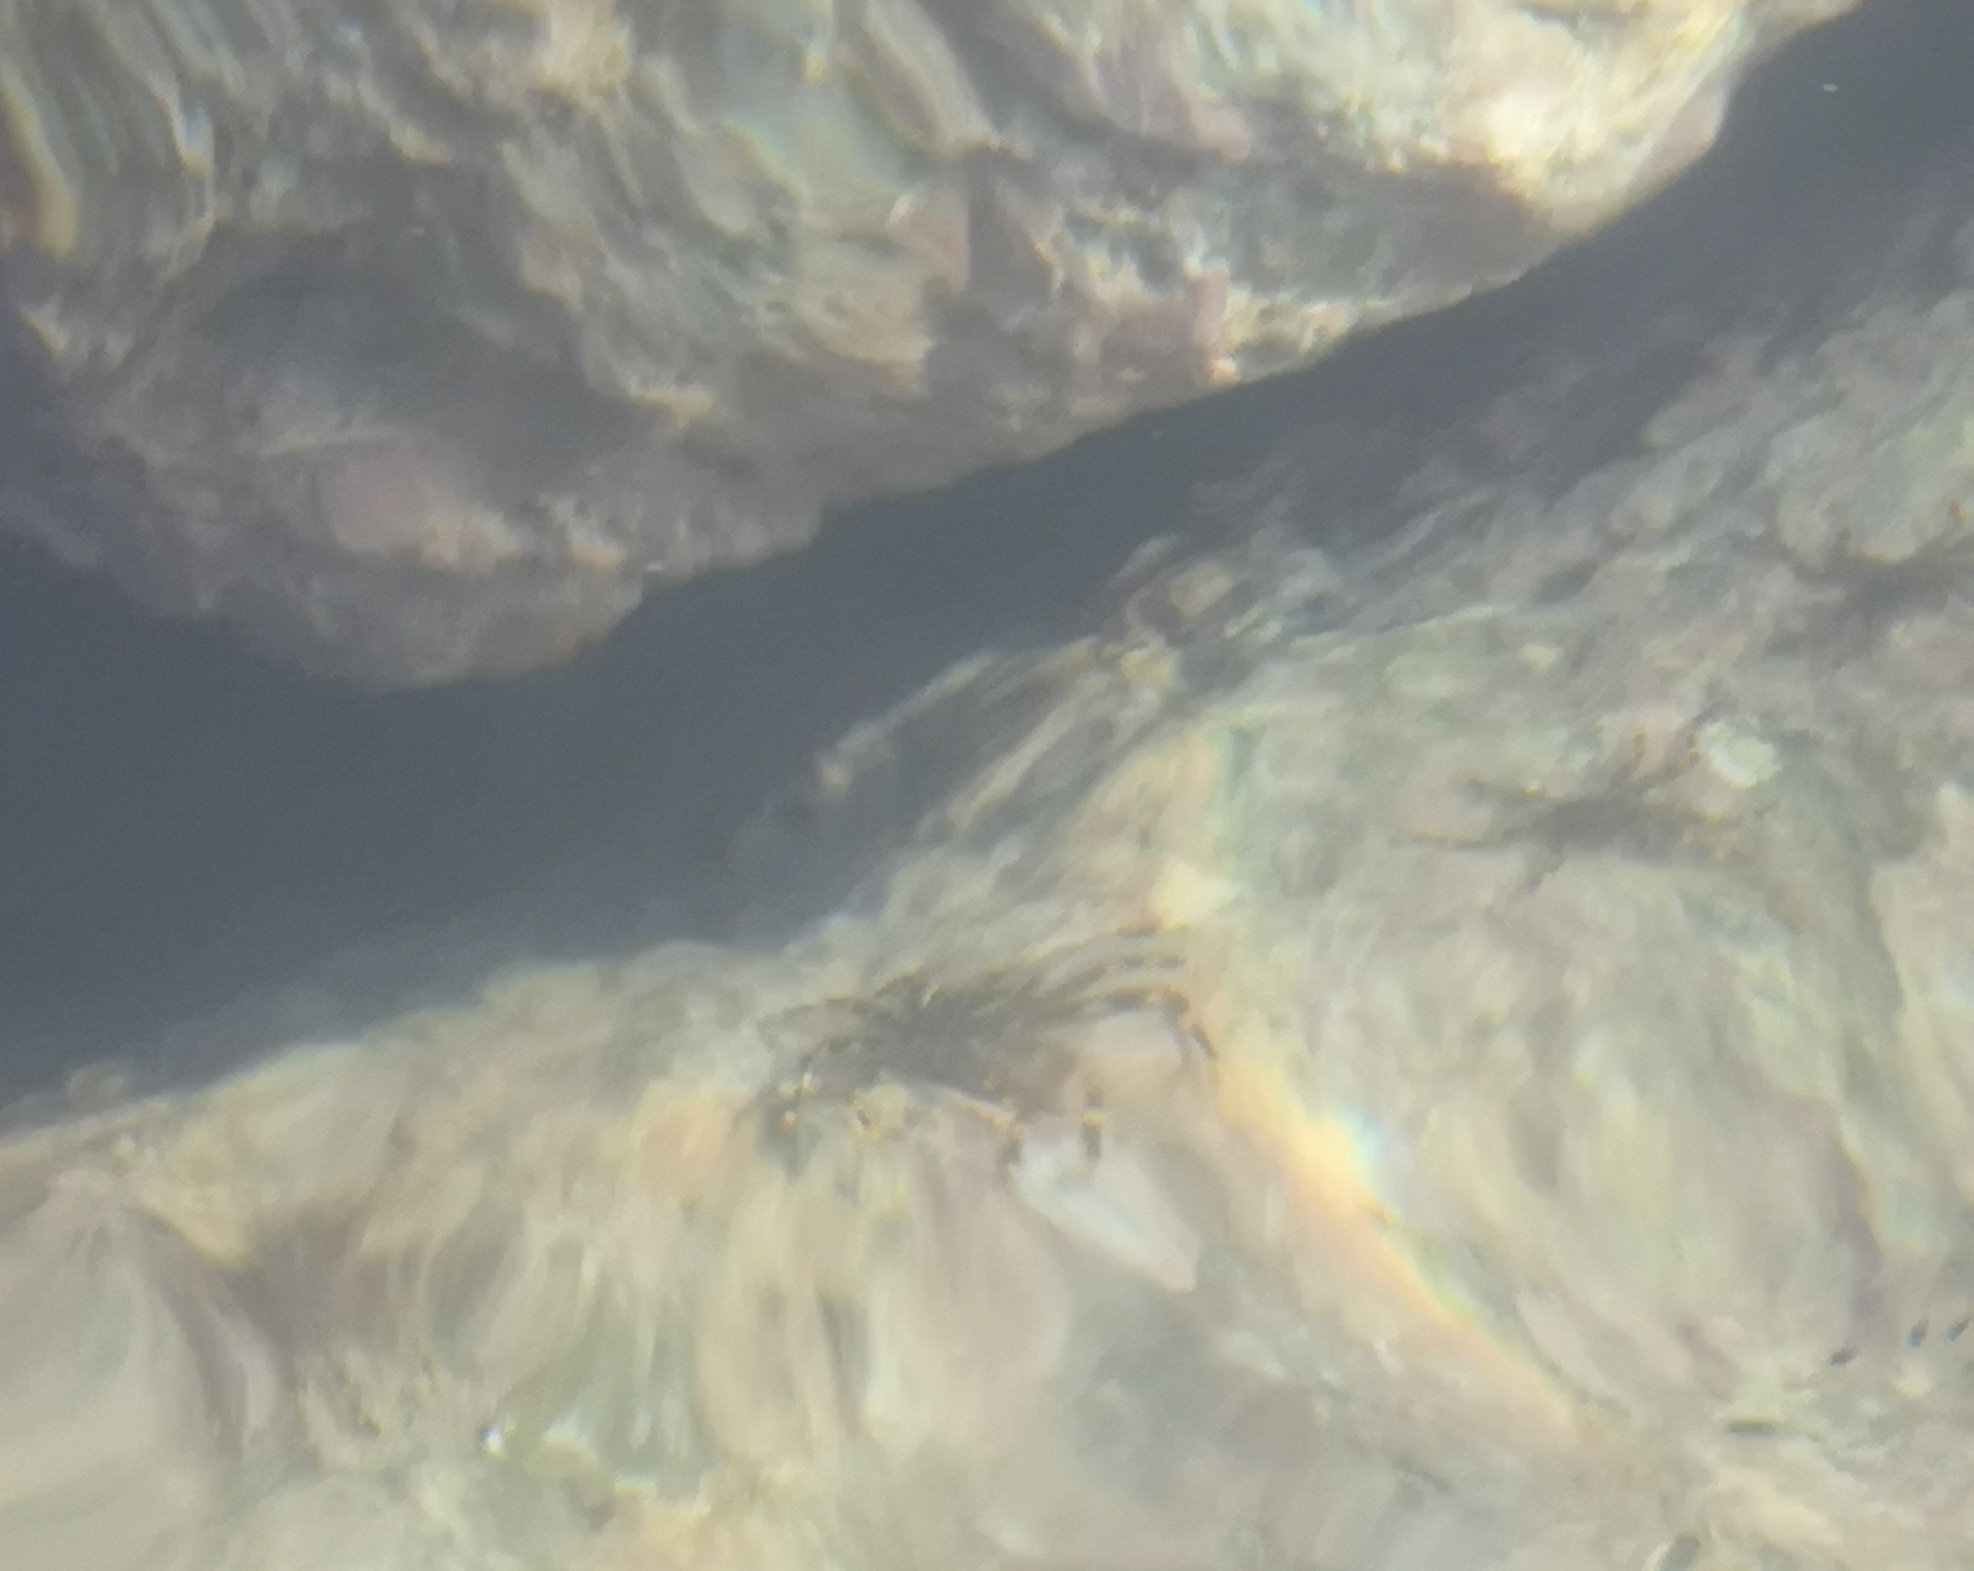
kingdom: Animalia
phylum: Arthropoda
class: Malacostraca
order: Decapoda
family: Percnidae
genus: Percnon
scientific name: Percnon gibbesi
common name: Nimble spray crab
